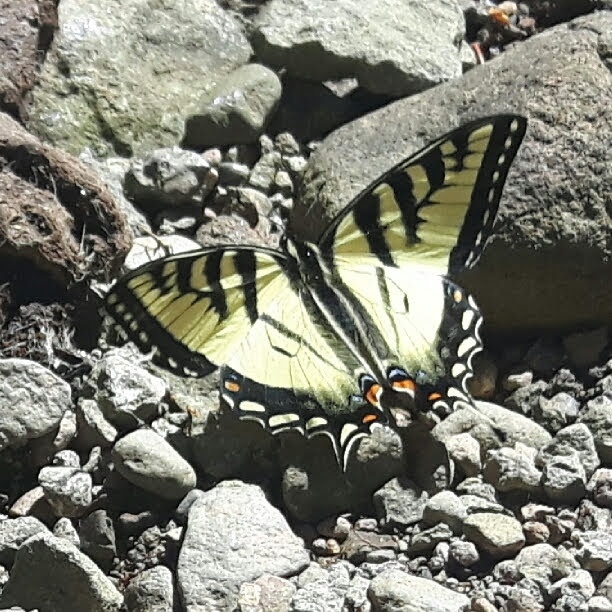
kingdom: Animalia
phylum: Arthropoda
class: Insecta
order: Lepidoptera
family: Papilionidae
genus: Papilio
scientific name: Papilio canadensis
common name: Canadian tiger swallowtail
